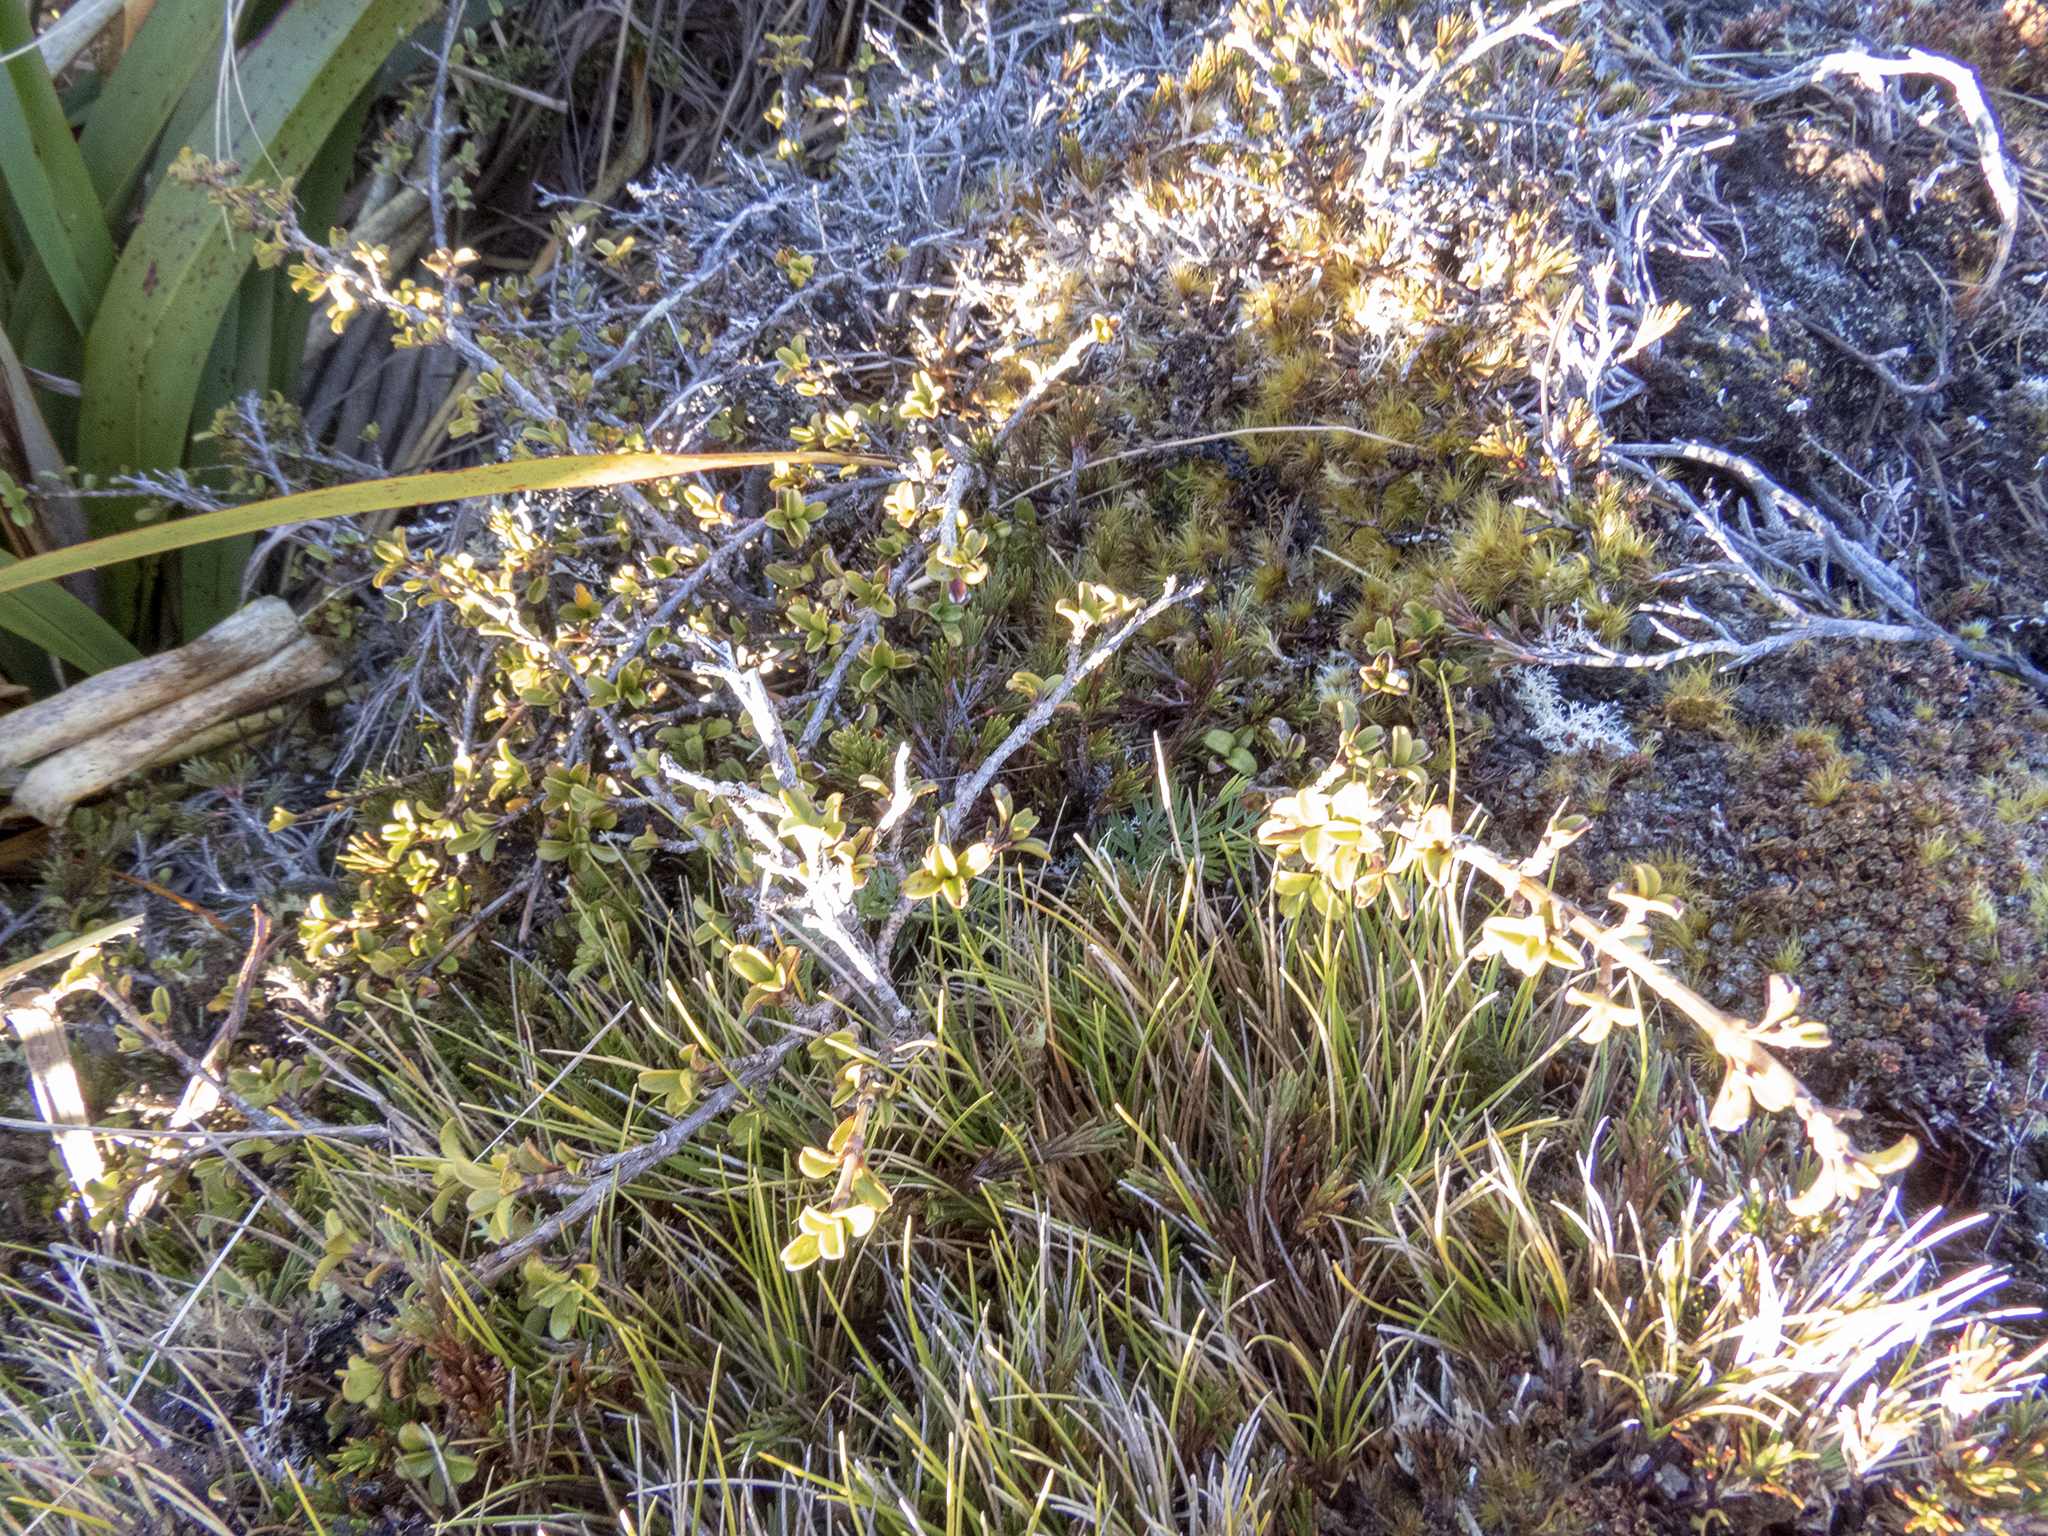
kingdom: Plantae
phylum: Tracheophyta
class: Magnoliopsida
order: Gentianales
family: Rubiaceae
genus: Coprosma
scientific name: Coprosma pseudocuneata
